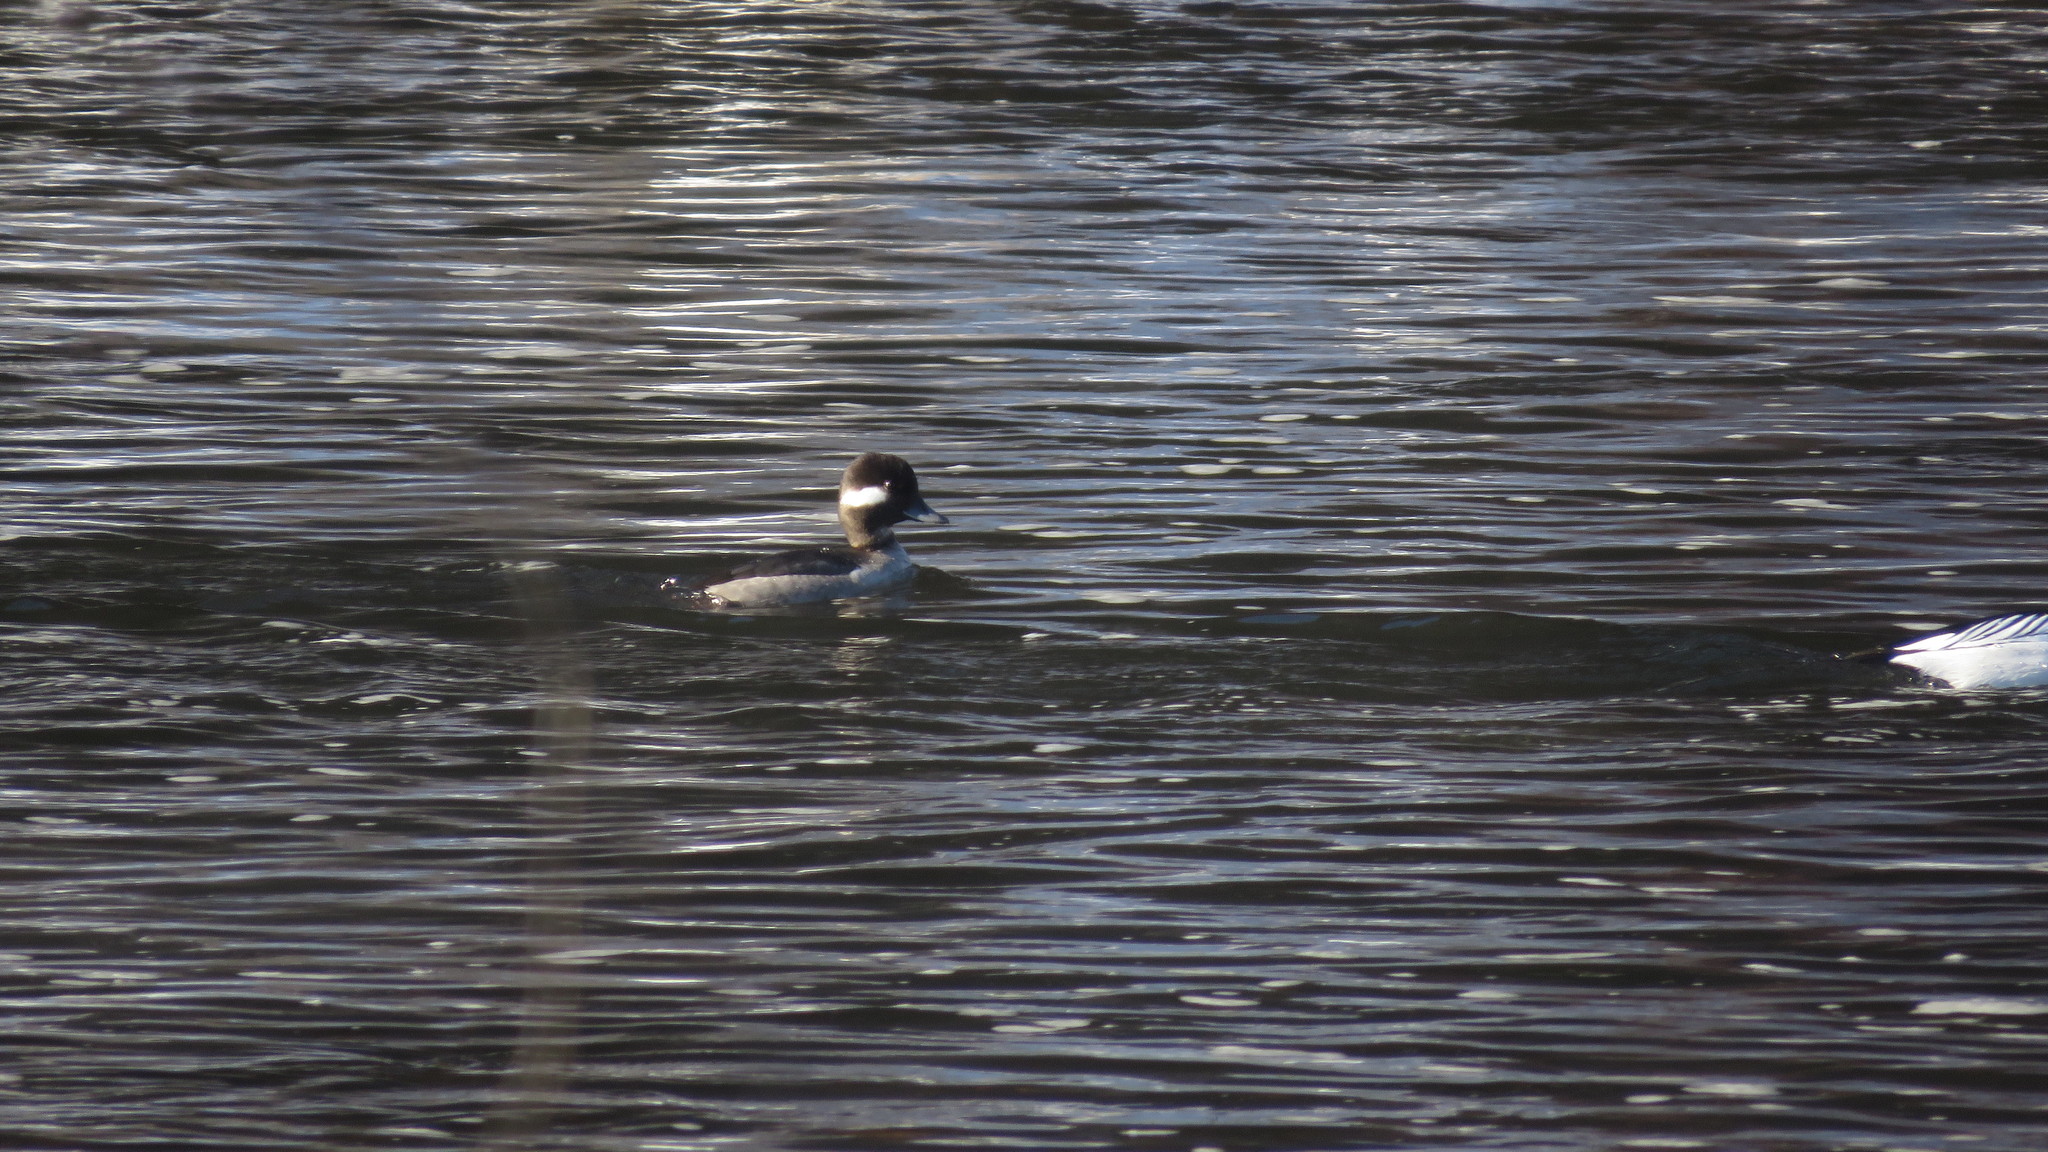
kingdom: Animalia
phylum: Chordata
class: Aves
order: Anseriformes
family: Anatidae
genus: Bucephala
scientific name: Bucephala albeola
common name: Bufflehead
